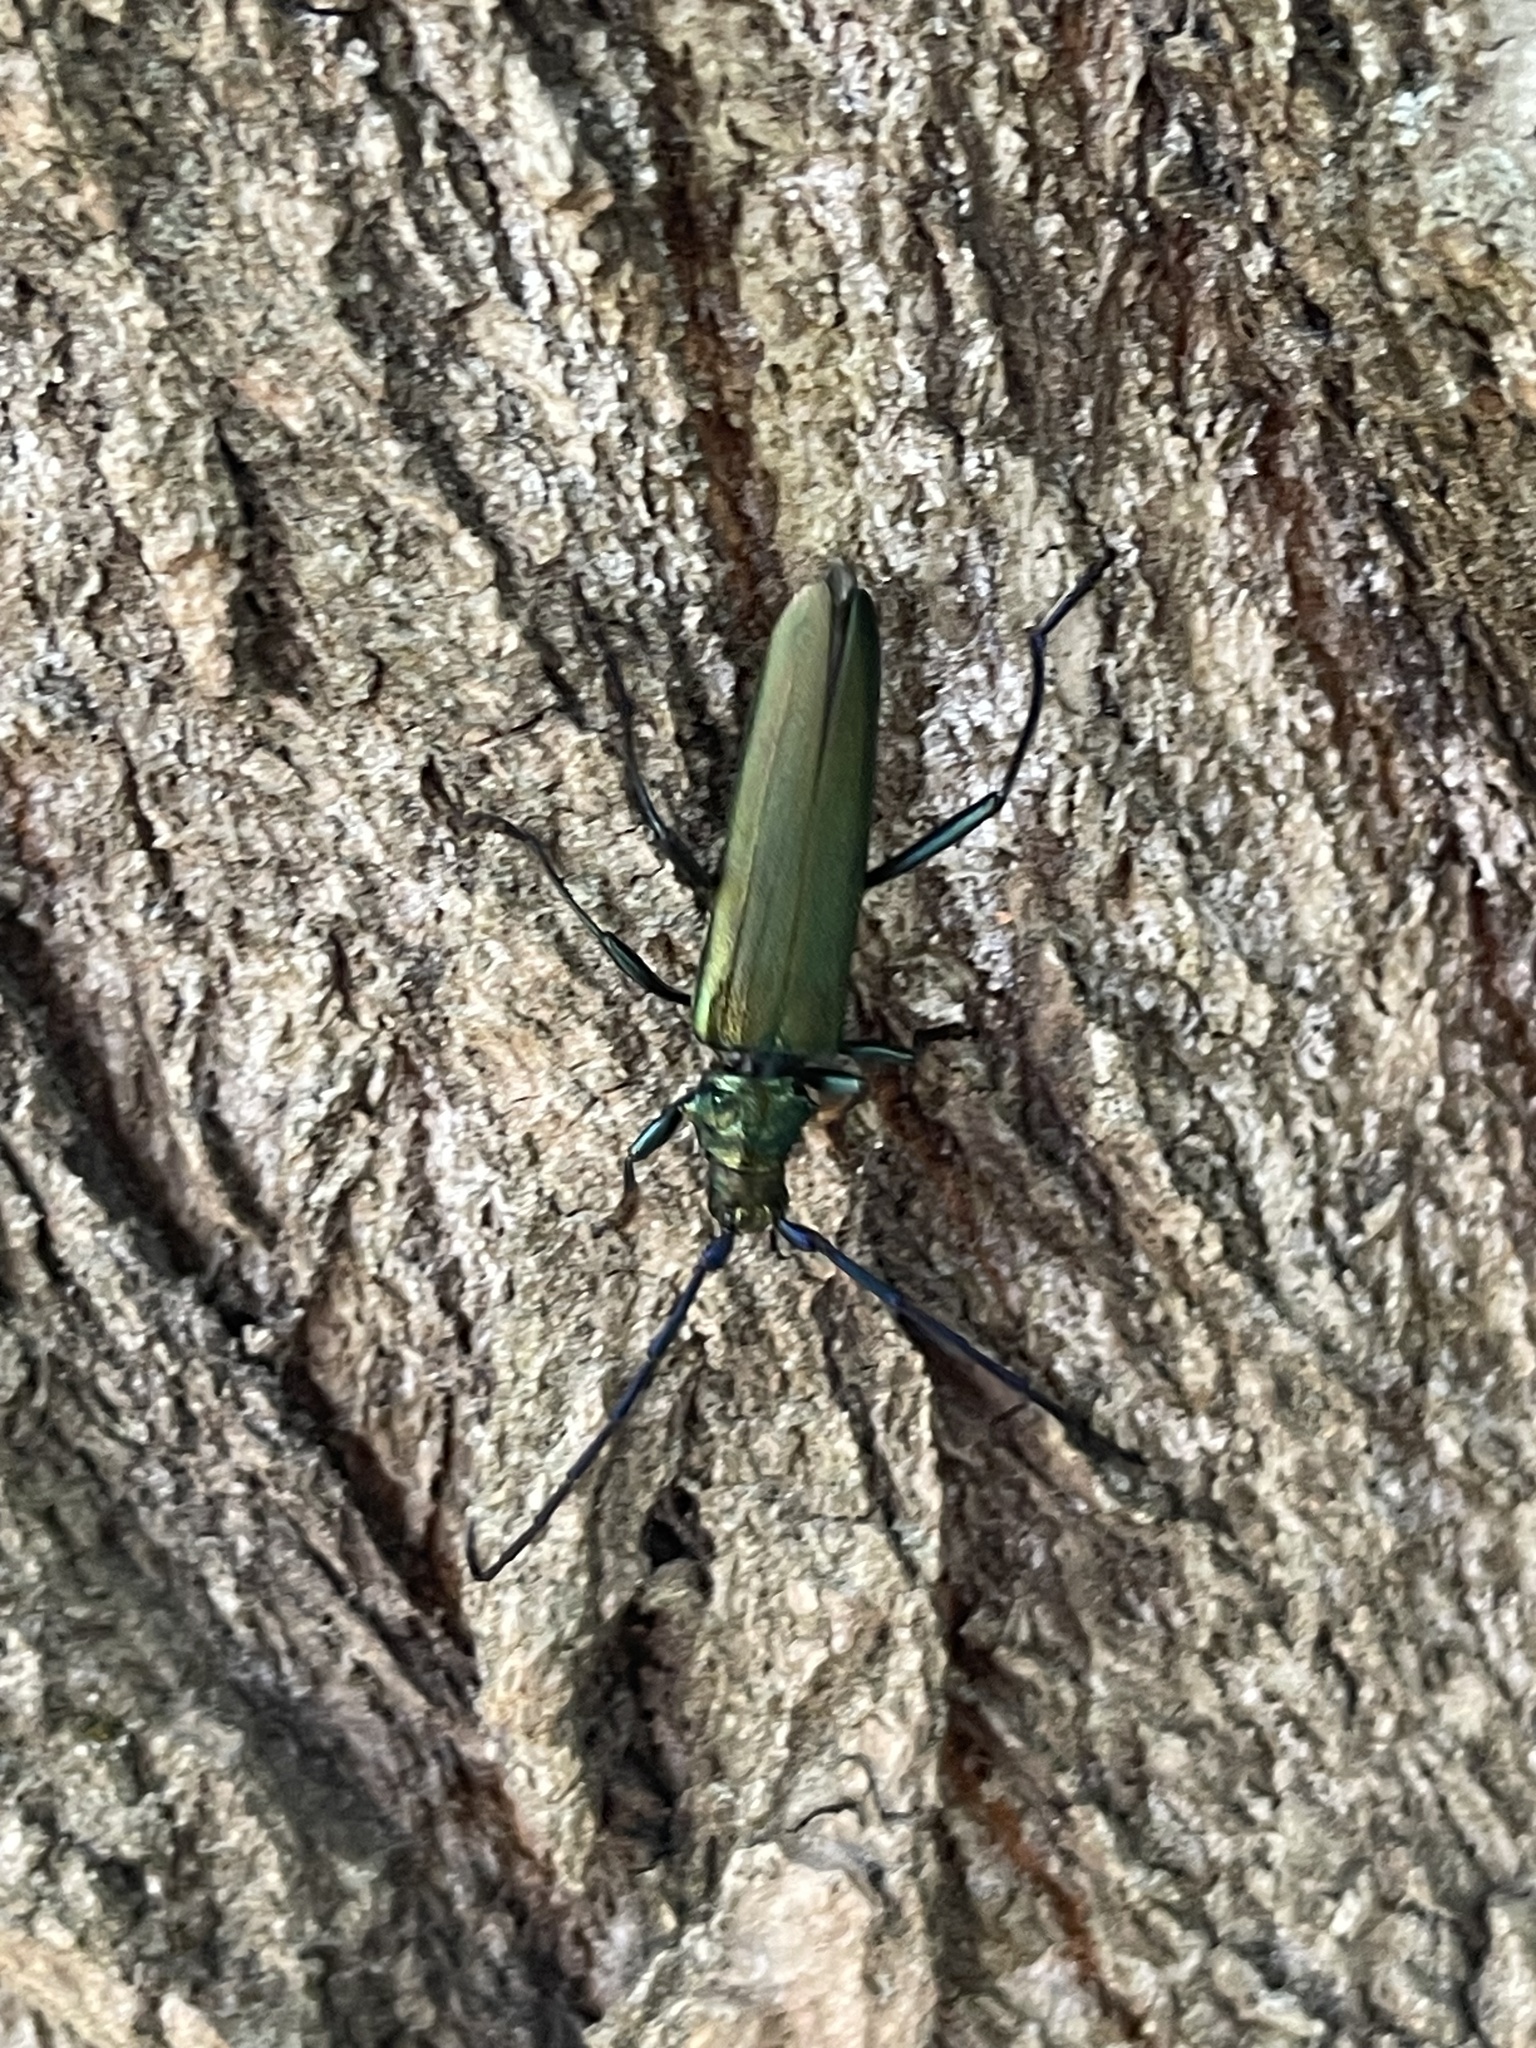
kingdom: Animalia
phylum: Arthropoda
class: Insecta
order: Coleoptera
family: Cerambycidae
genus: Aromia
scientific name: Aromia moschata
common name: Musk beetle
